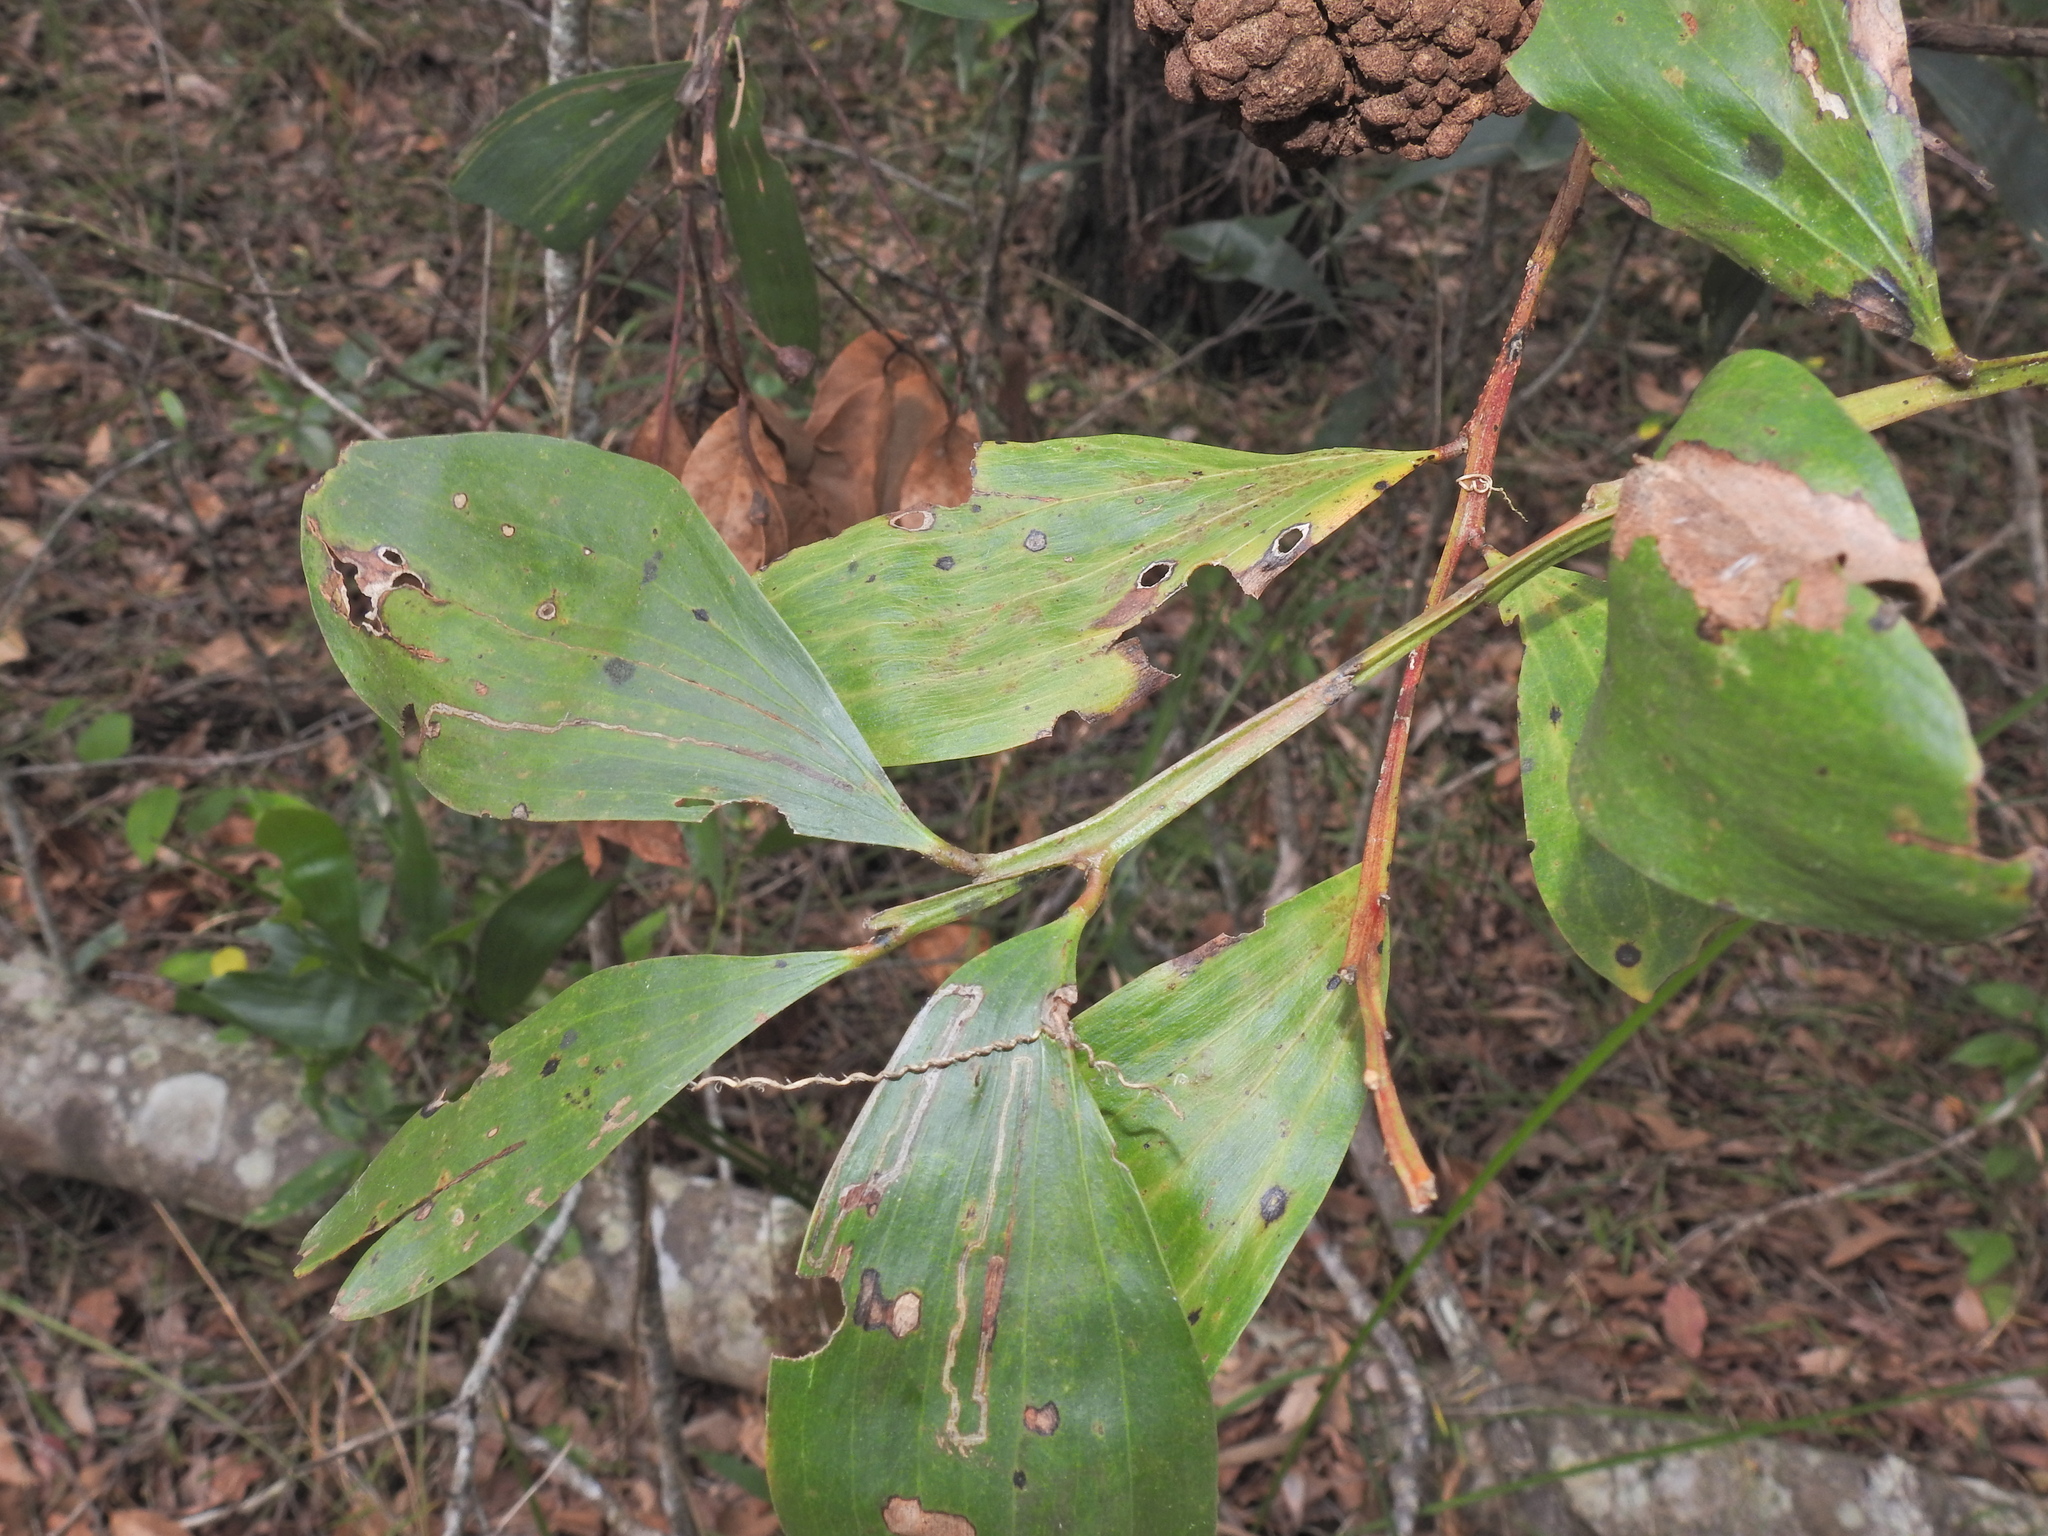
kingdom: Plantae
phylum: Tracheophyta
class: Magnoliopsida
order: Fabales
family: Fabaceae
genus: Acacia
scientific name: Acacia leiocalyx
